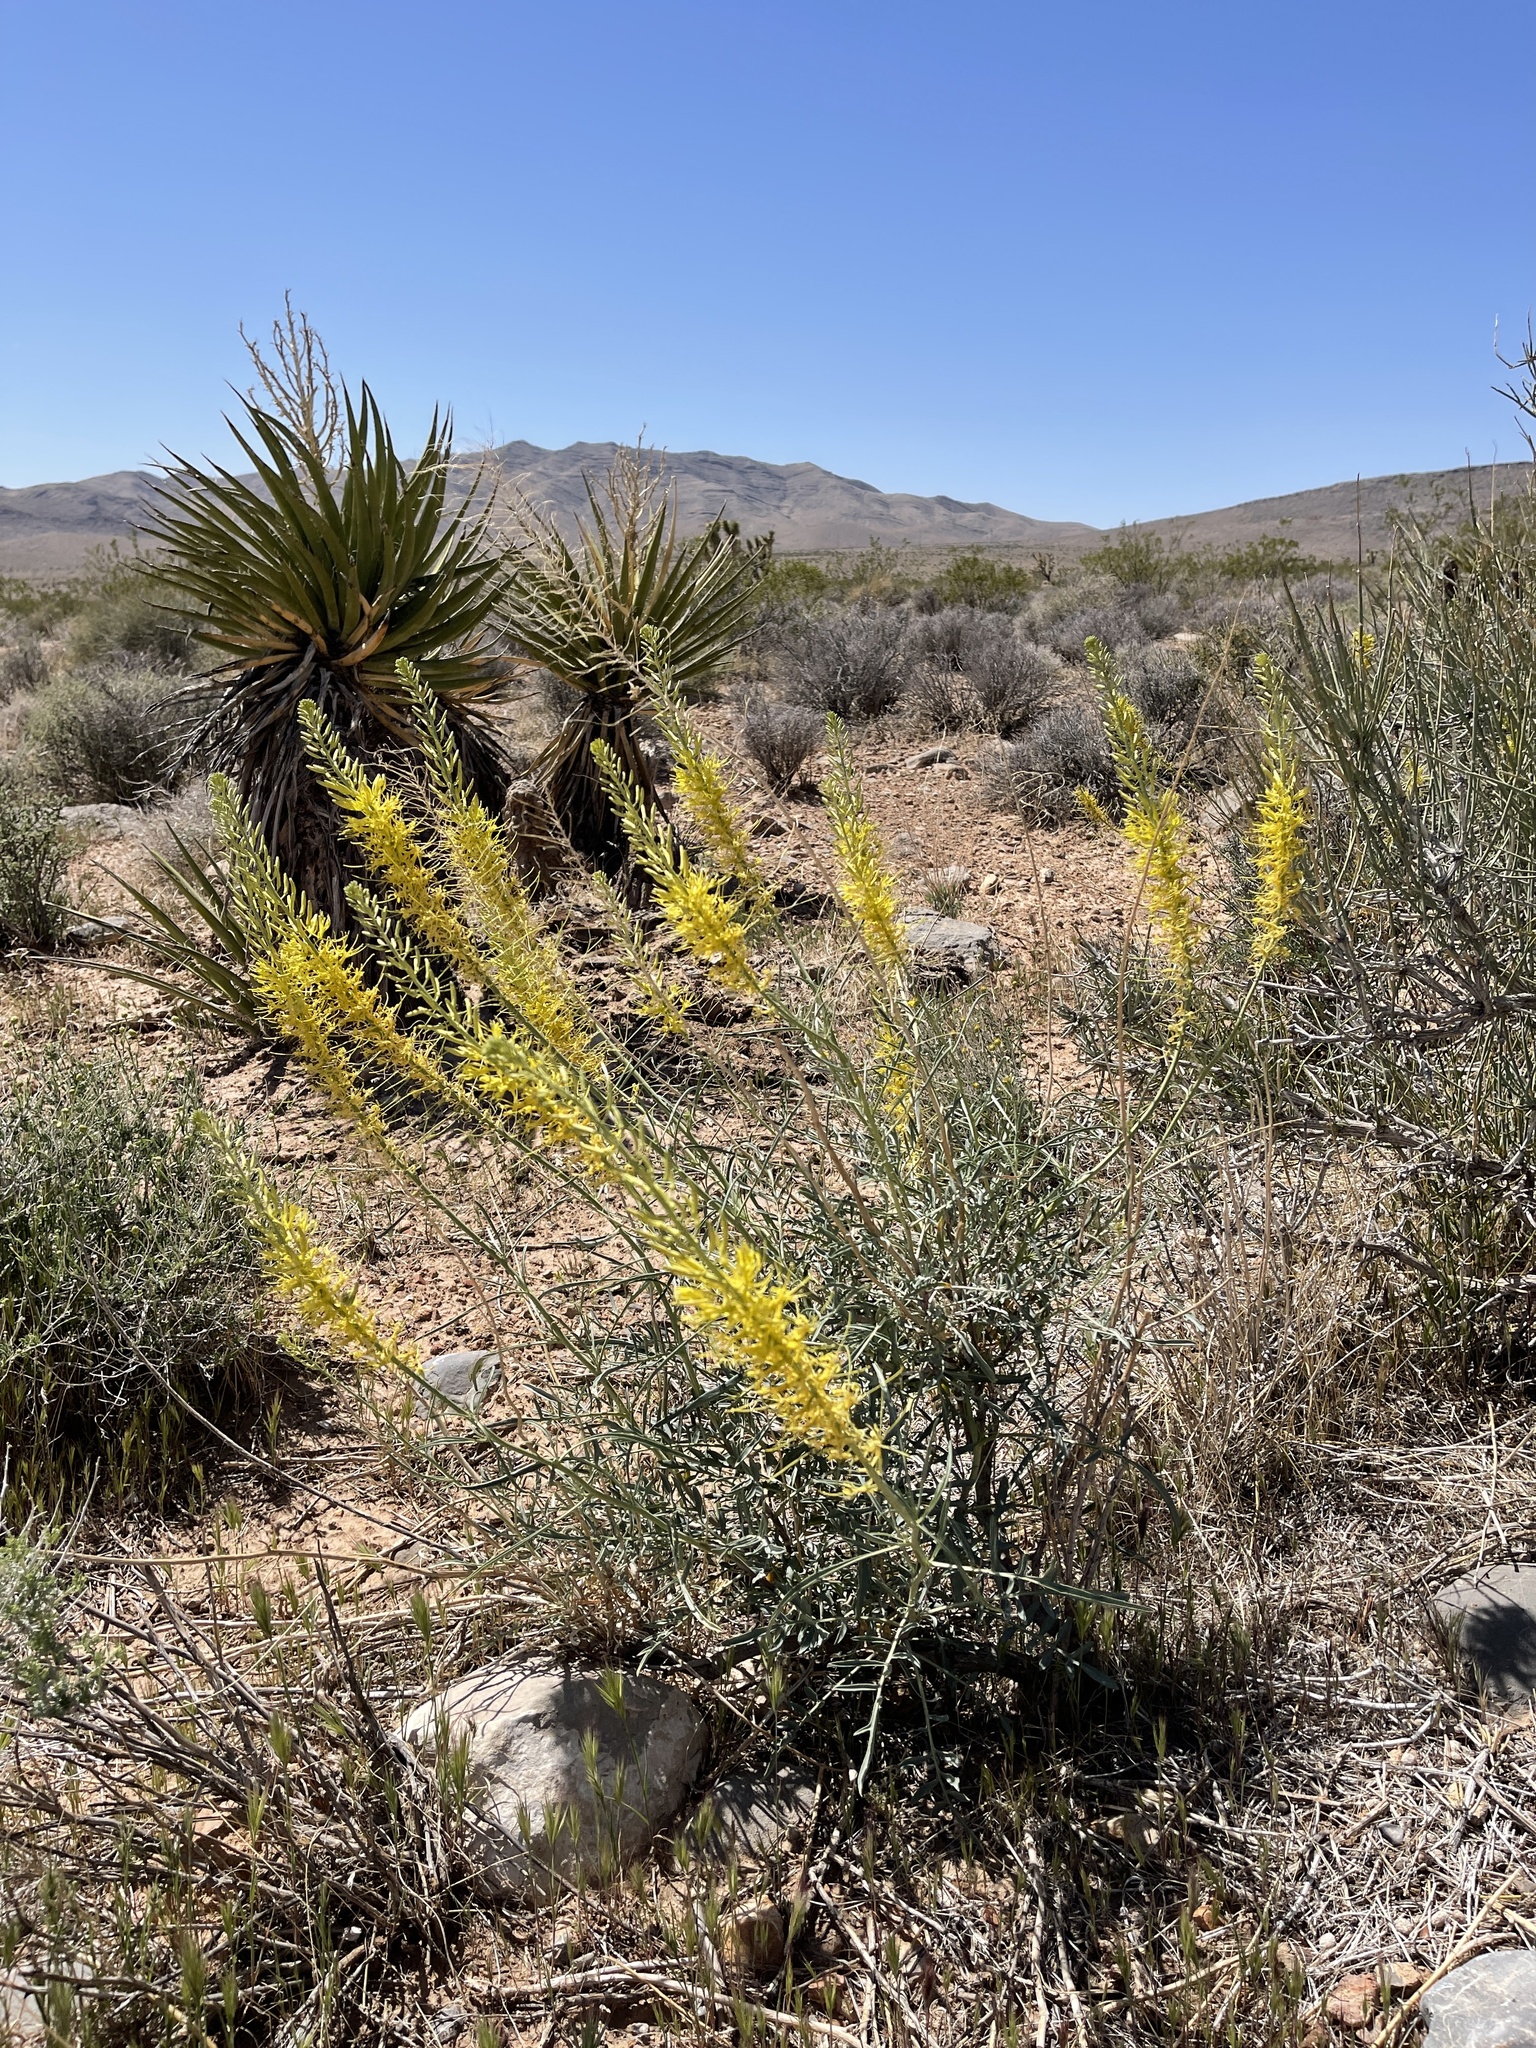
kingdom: Plantae
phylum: Tracheophyta
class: Magnoliopsida
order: Brassicales
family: Brassicaceae
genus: Stanleya
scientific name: Stanleya pinnata
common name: Prince's-plume
